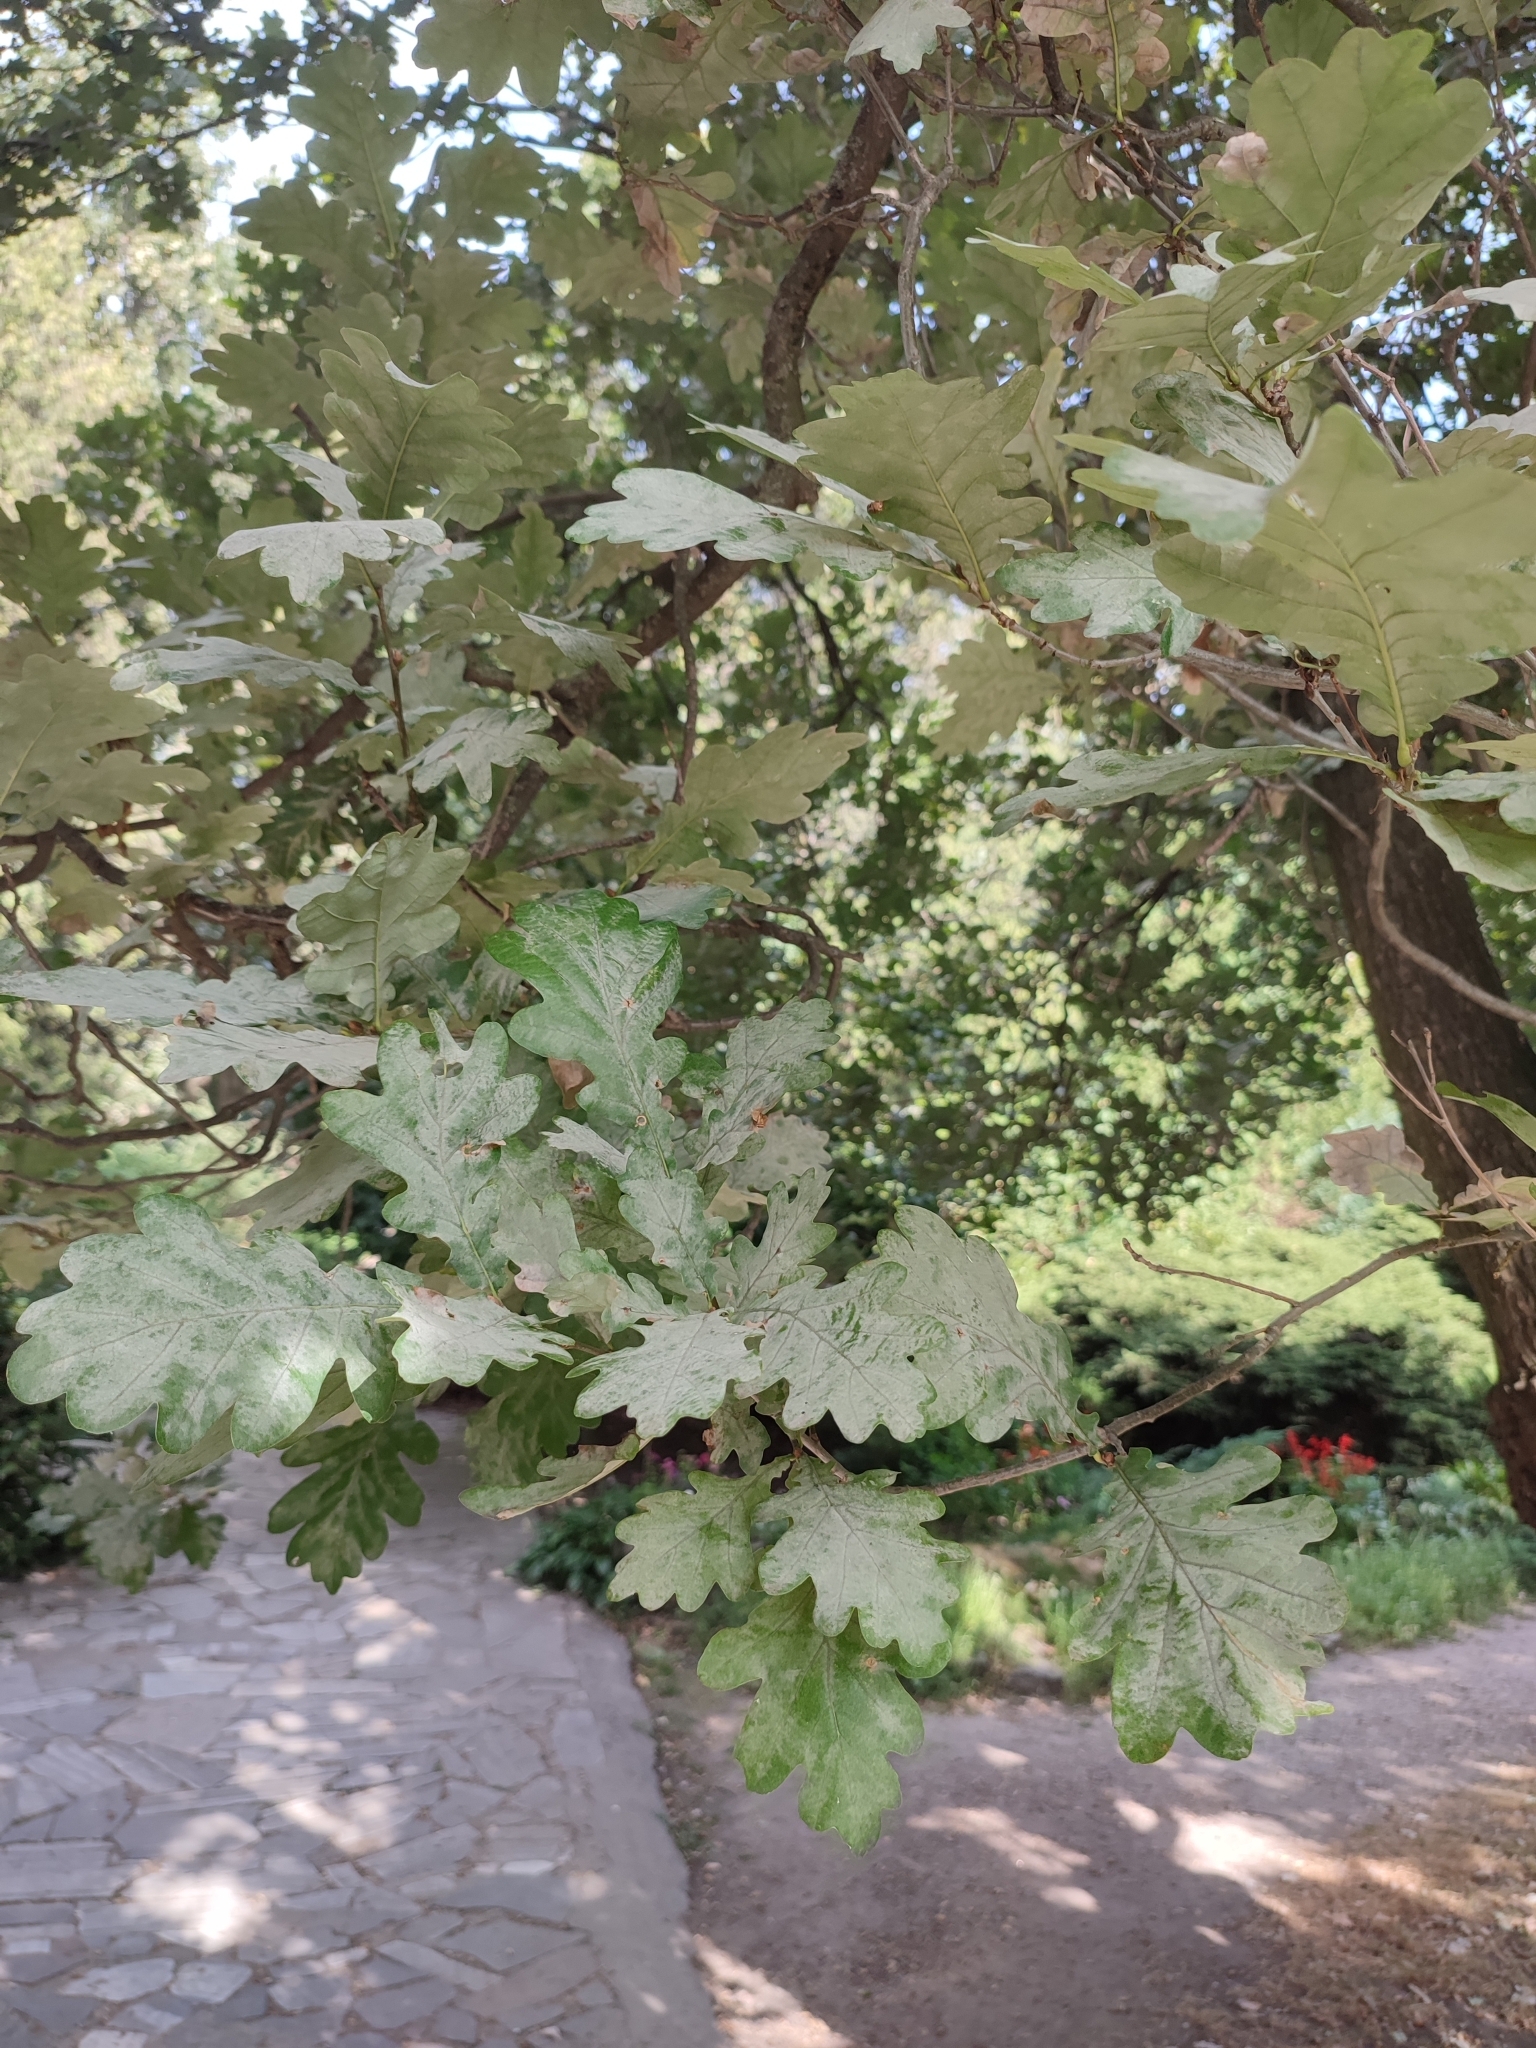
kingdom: Fungi
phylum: Ascomycota
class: Leotiomycetes
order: Helotiales
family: Erysiphaceae
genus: Erysiphe
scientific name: Erysiphe alphitoides
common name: Oak mildew
